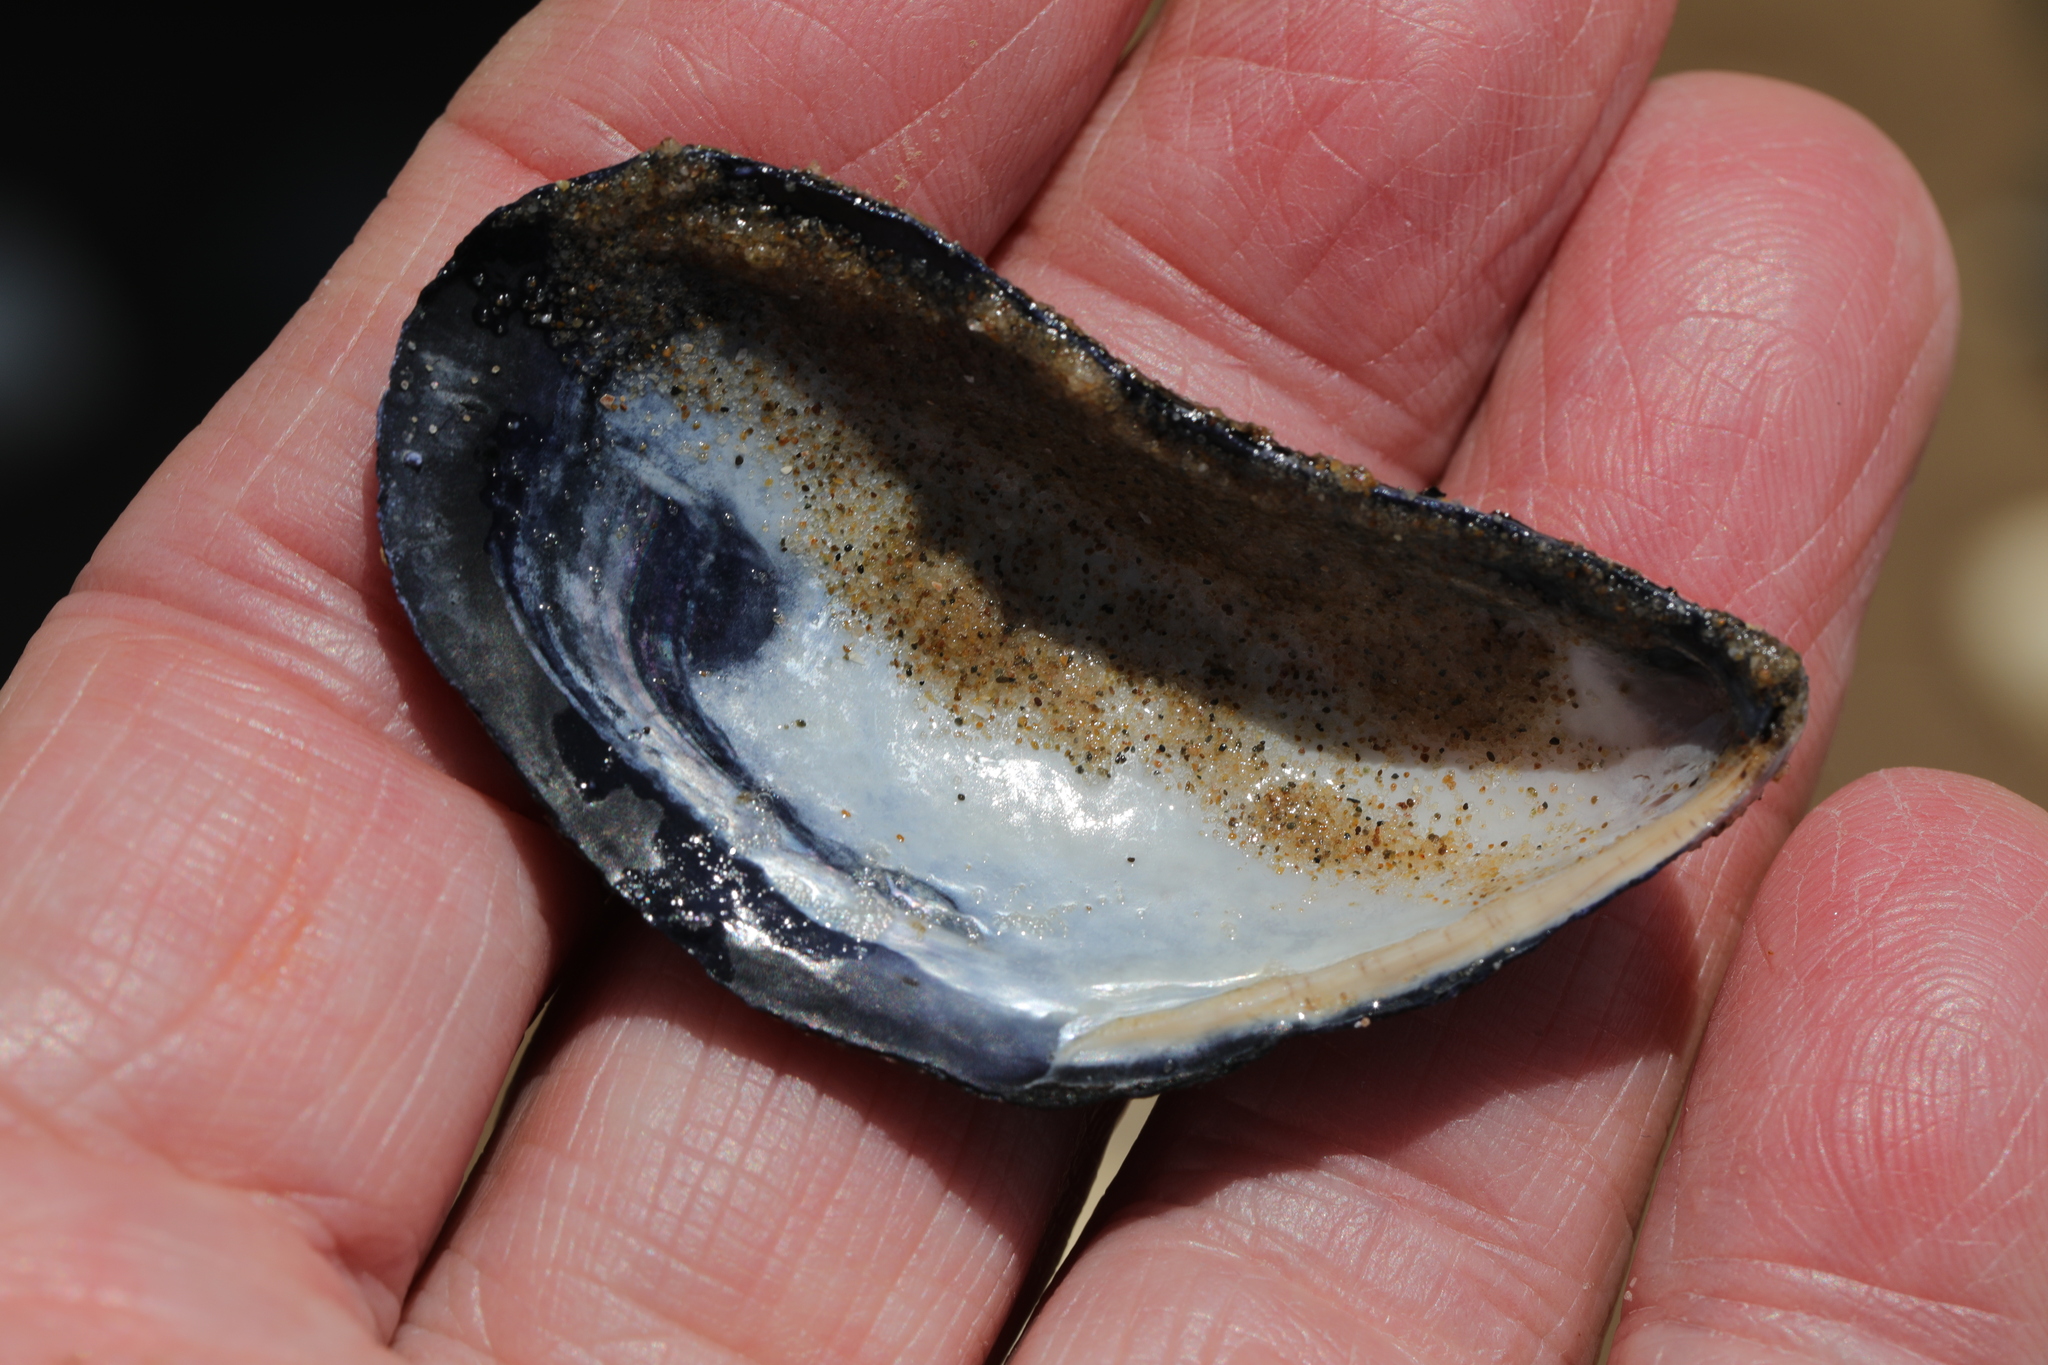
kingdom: Animalia
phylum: Mollusca
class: Bivalvia
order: Mytilida
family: Mytilidae
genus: Mytilus
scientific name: Mytilus edulis
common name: Blue mussel
